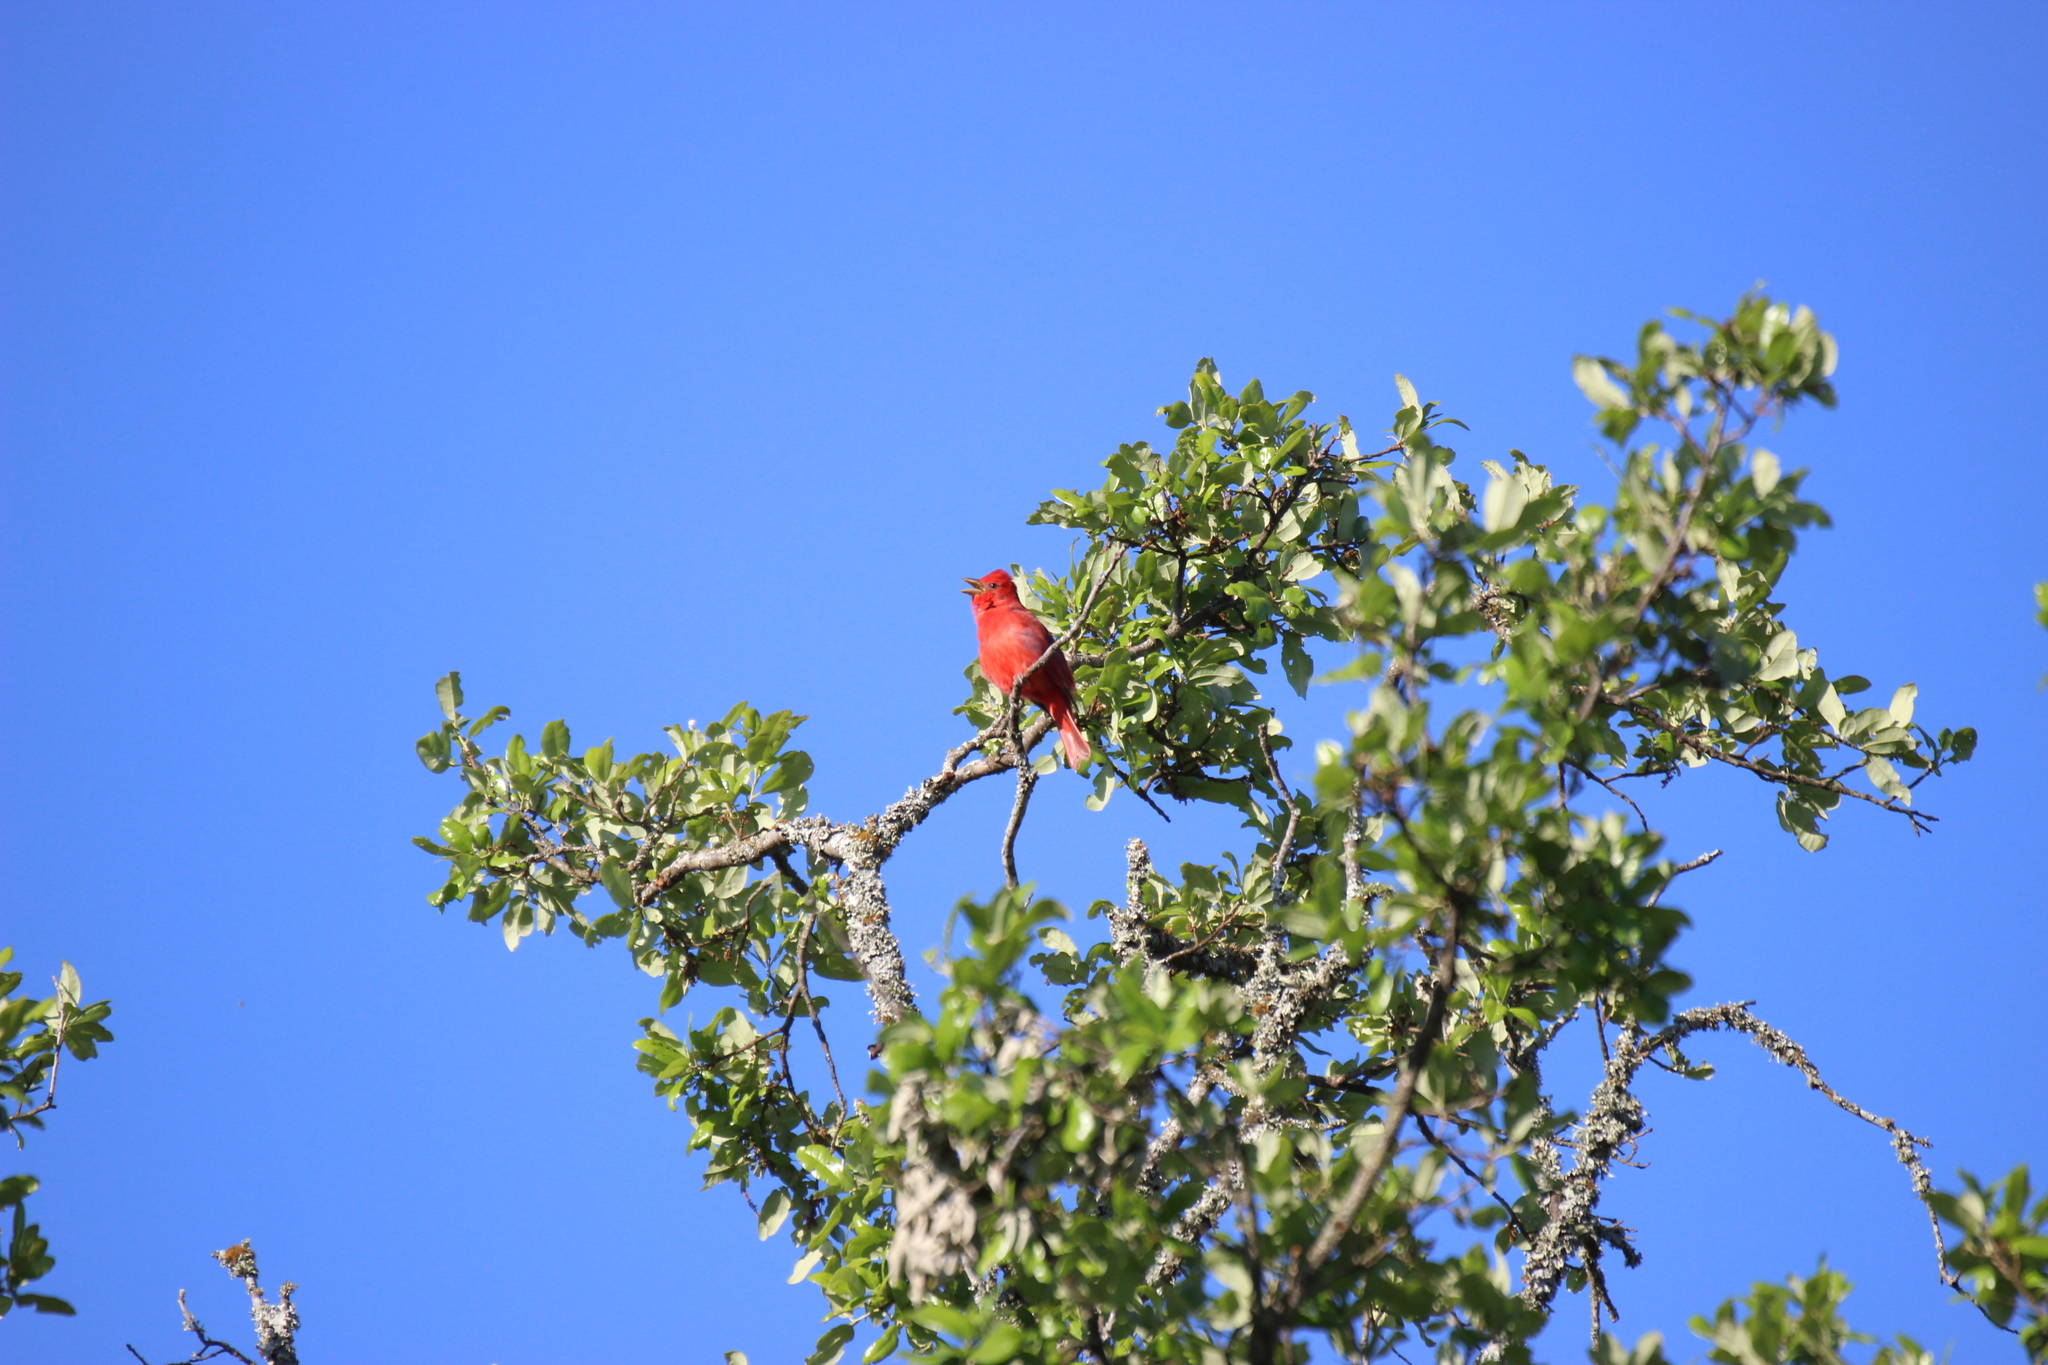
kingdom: Animalia
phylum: Chordata
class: Aves
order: Passeriformes
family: Cardinalidae
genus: Piranga
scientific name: Piranga rubra
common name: Summer tanager
